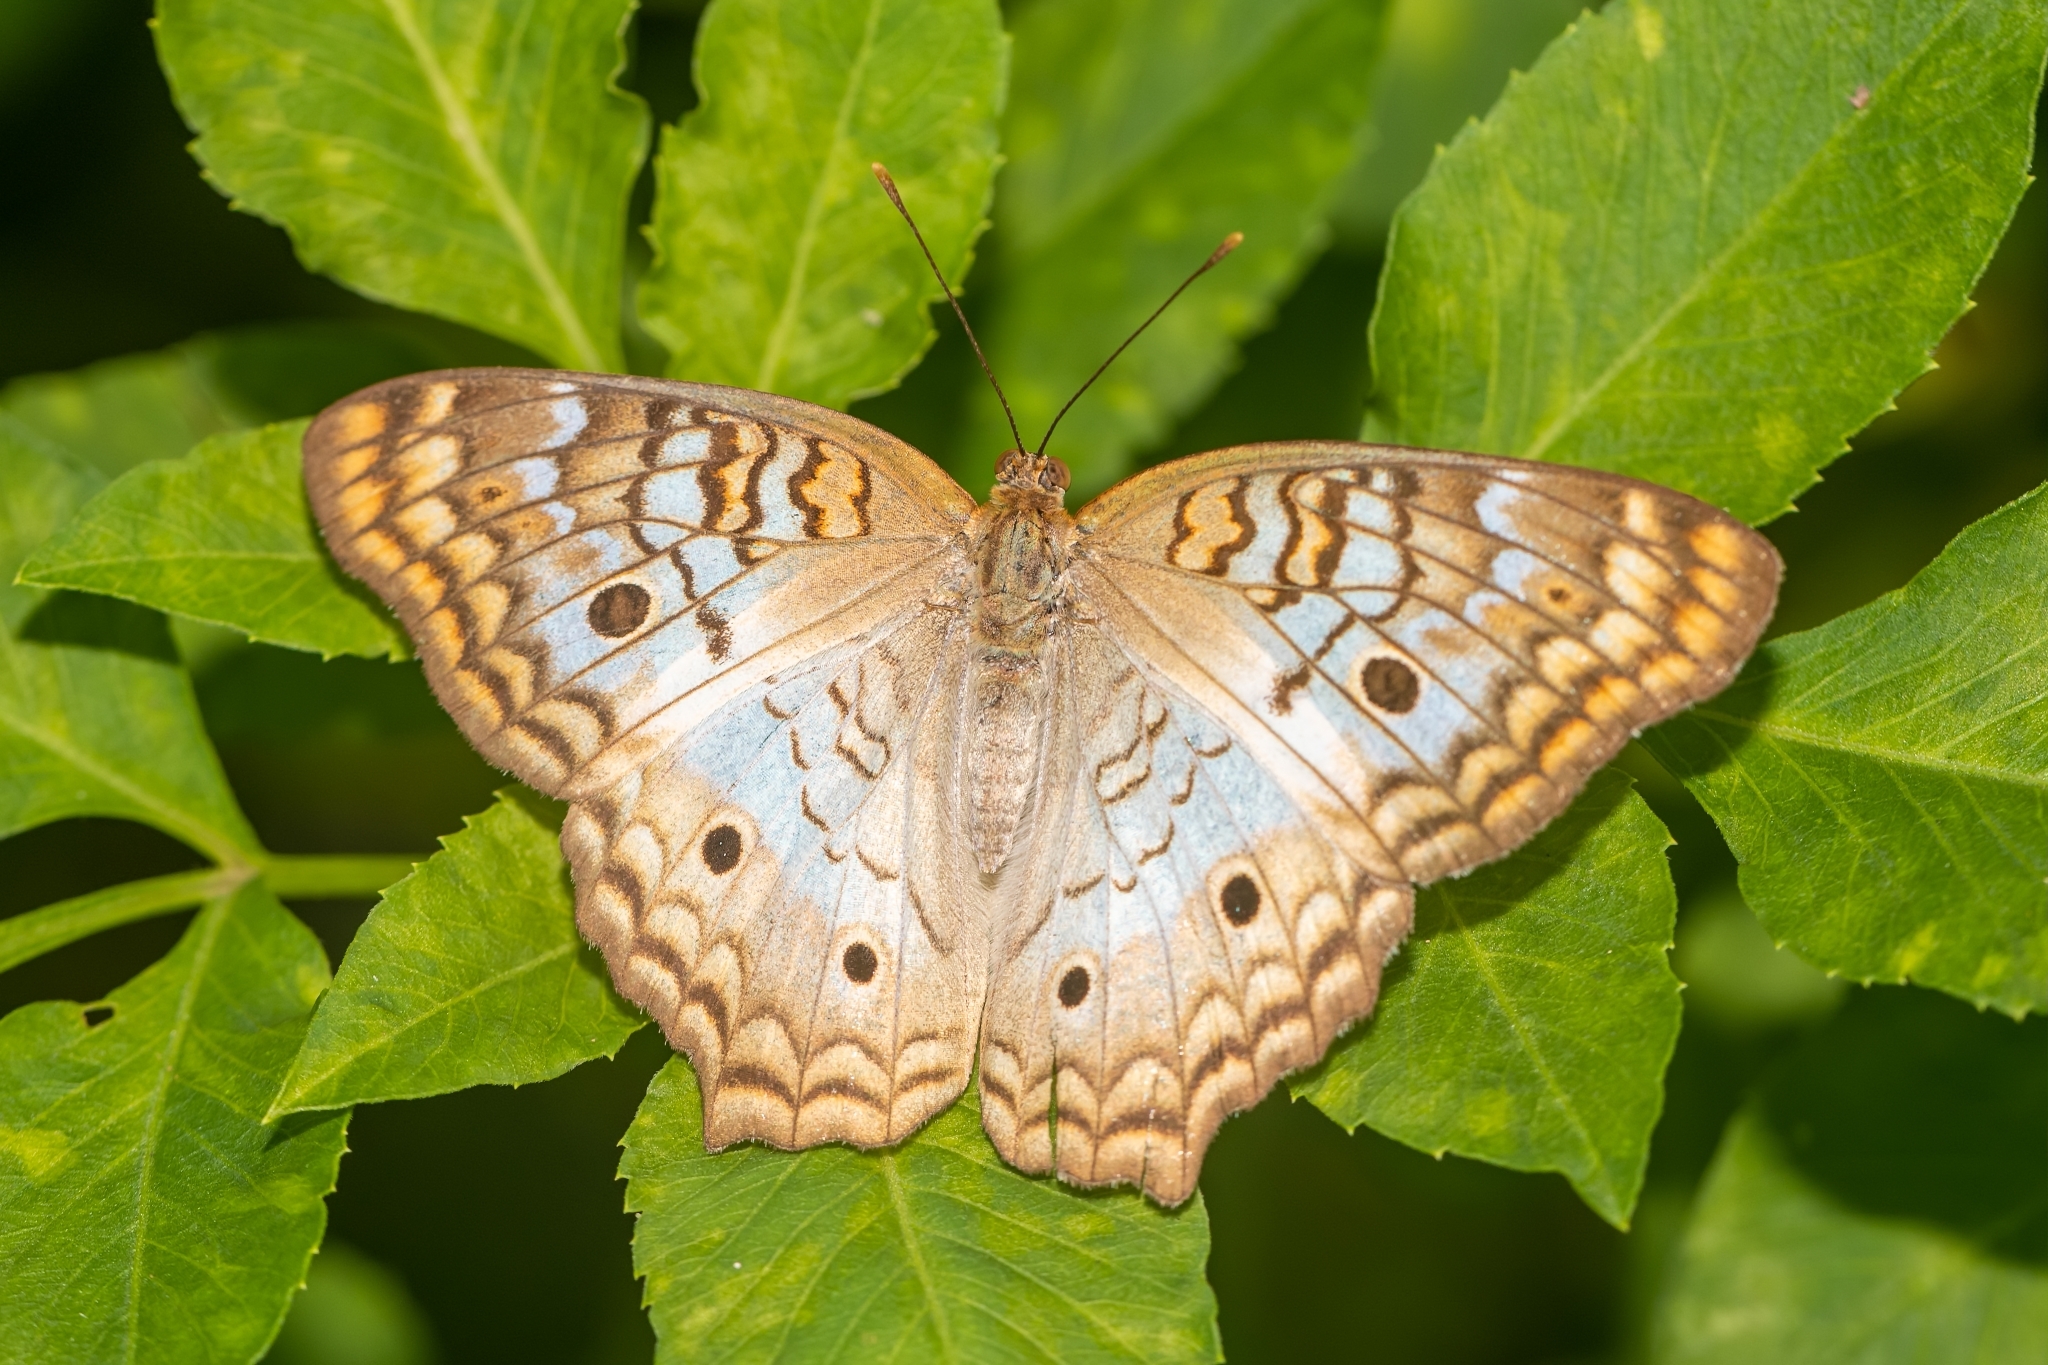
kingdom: Animalia
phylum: Arthropoda
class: Insecta
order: Lepidoptera
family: Nymphalidae
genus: Anartia
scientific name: Anartia jatrophae
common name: White peacock
